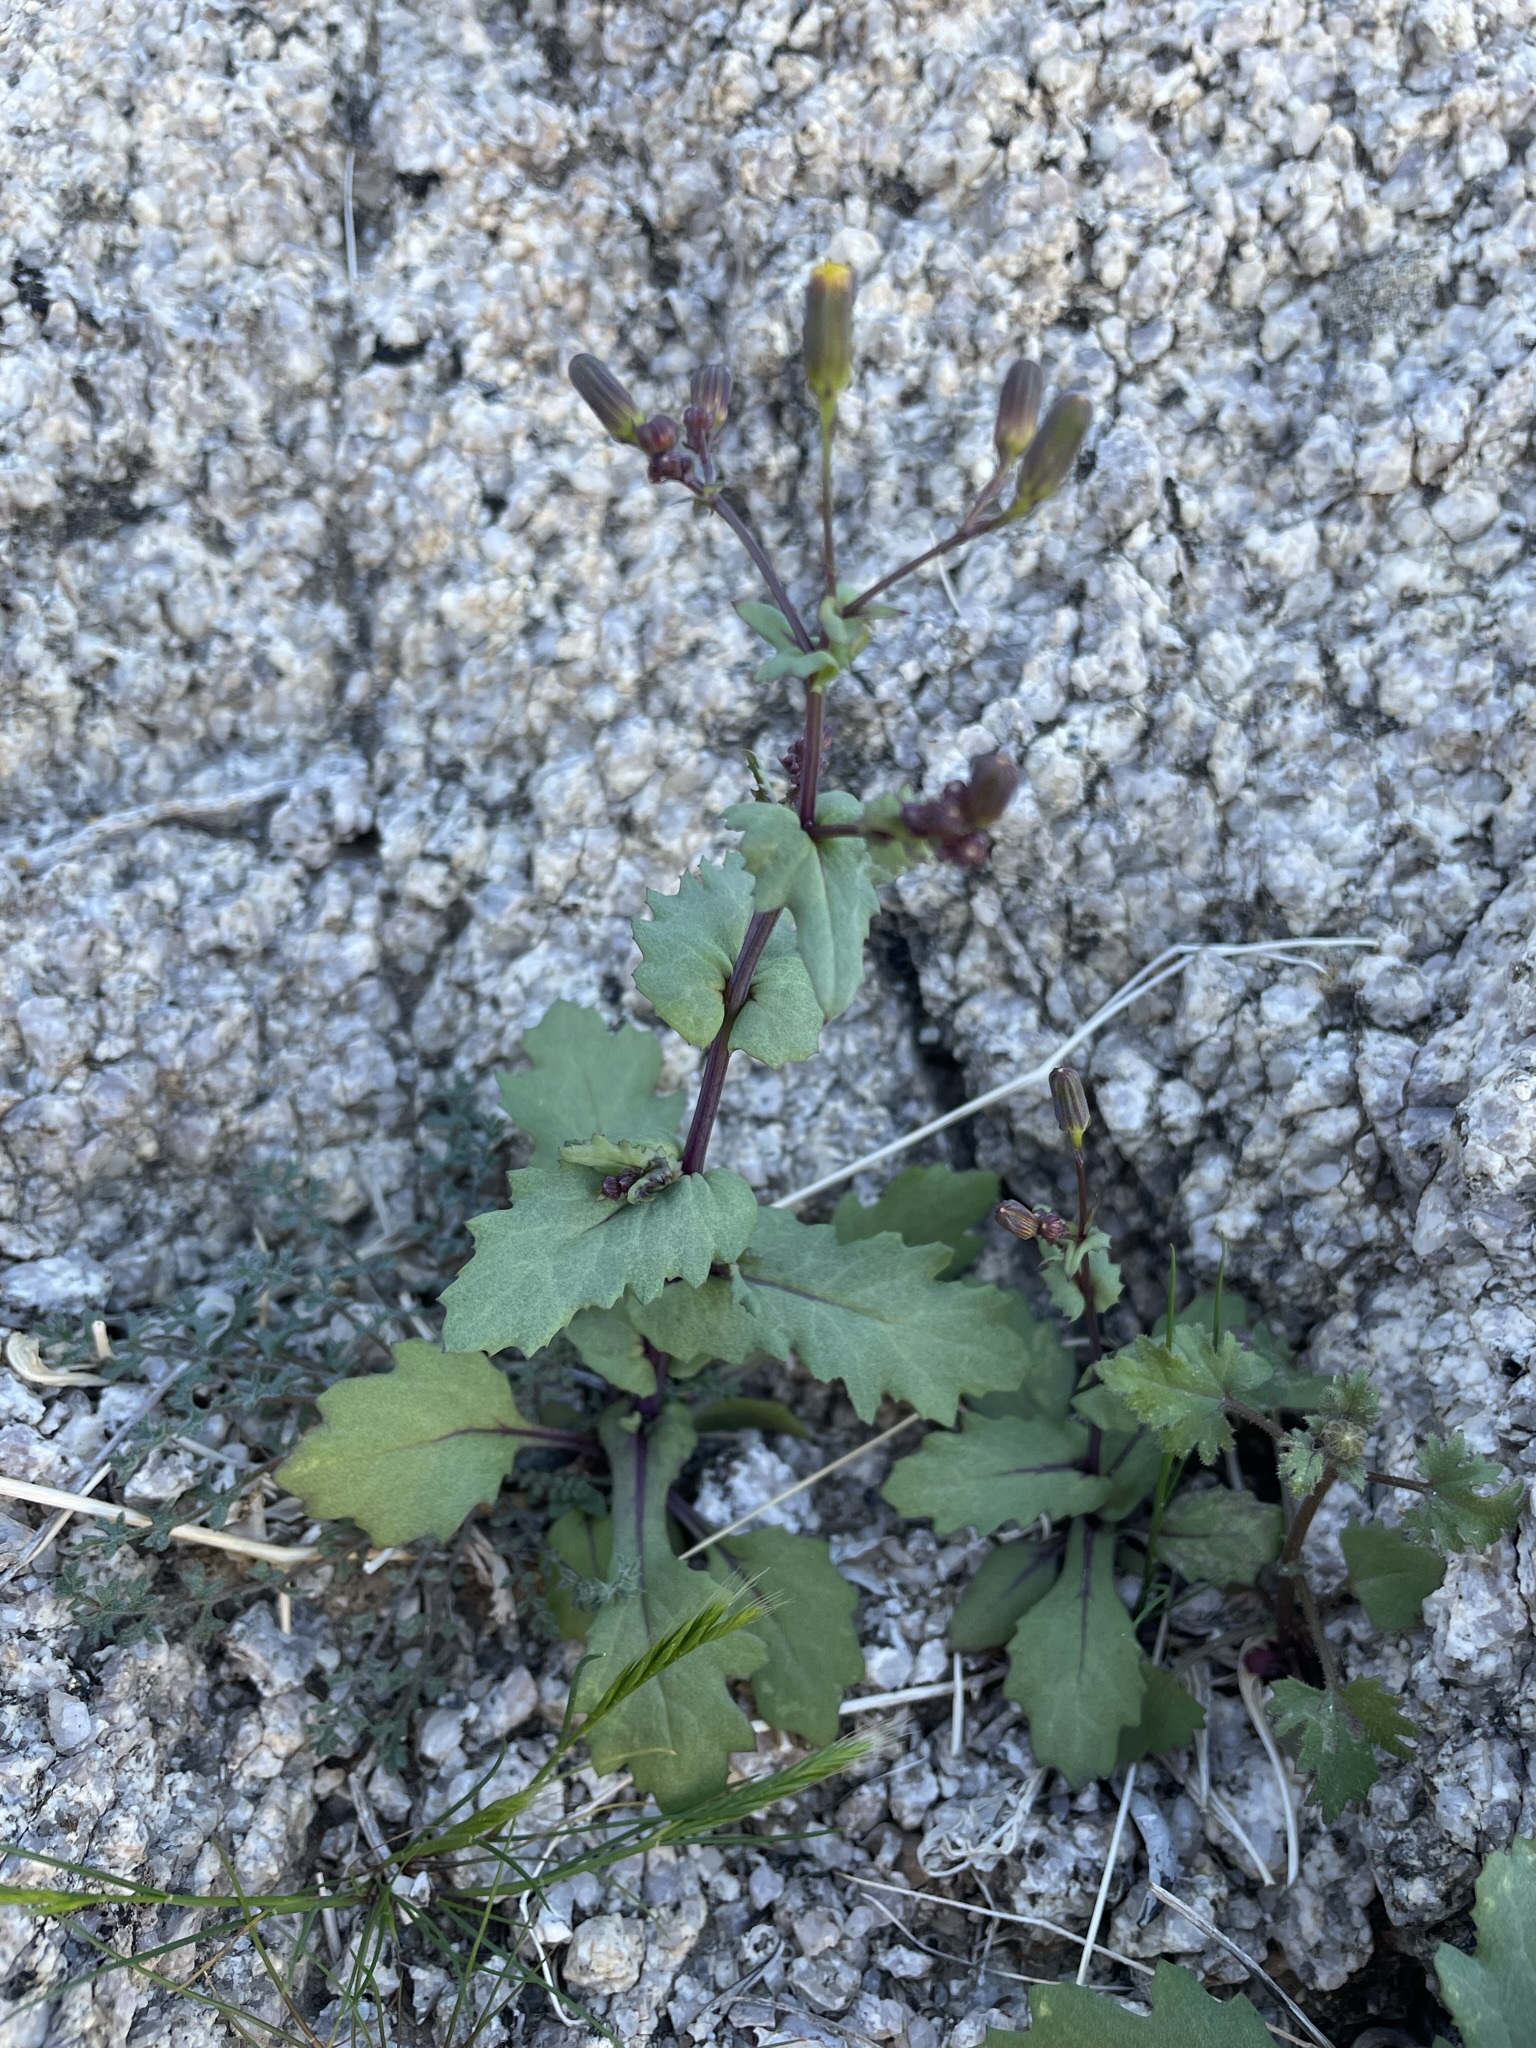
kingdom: Plantae
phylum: Tracheophyta
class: Magnoliopsida
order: Asterales
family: Asteraceae
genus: Senecio
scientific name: Senecio mohavensis
